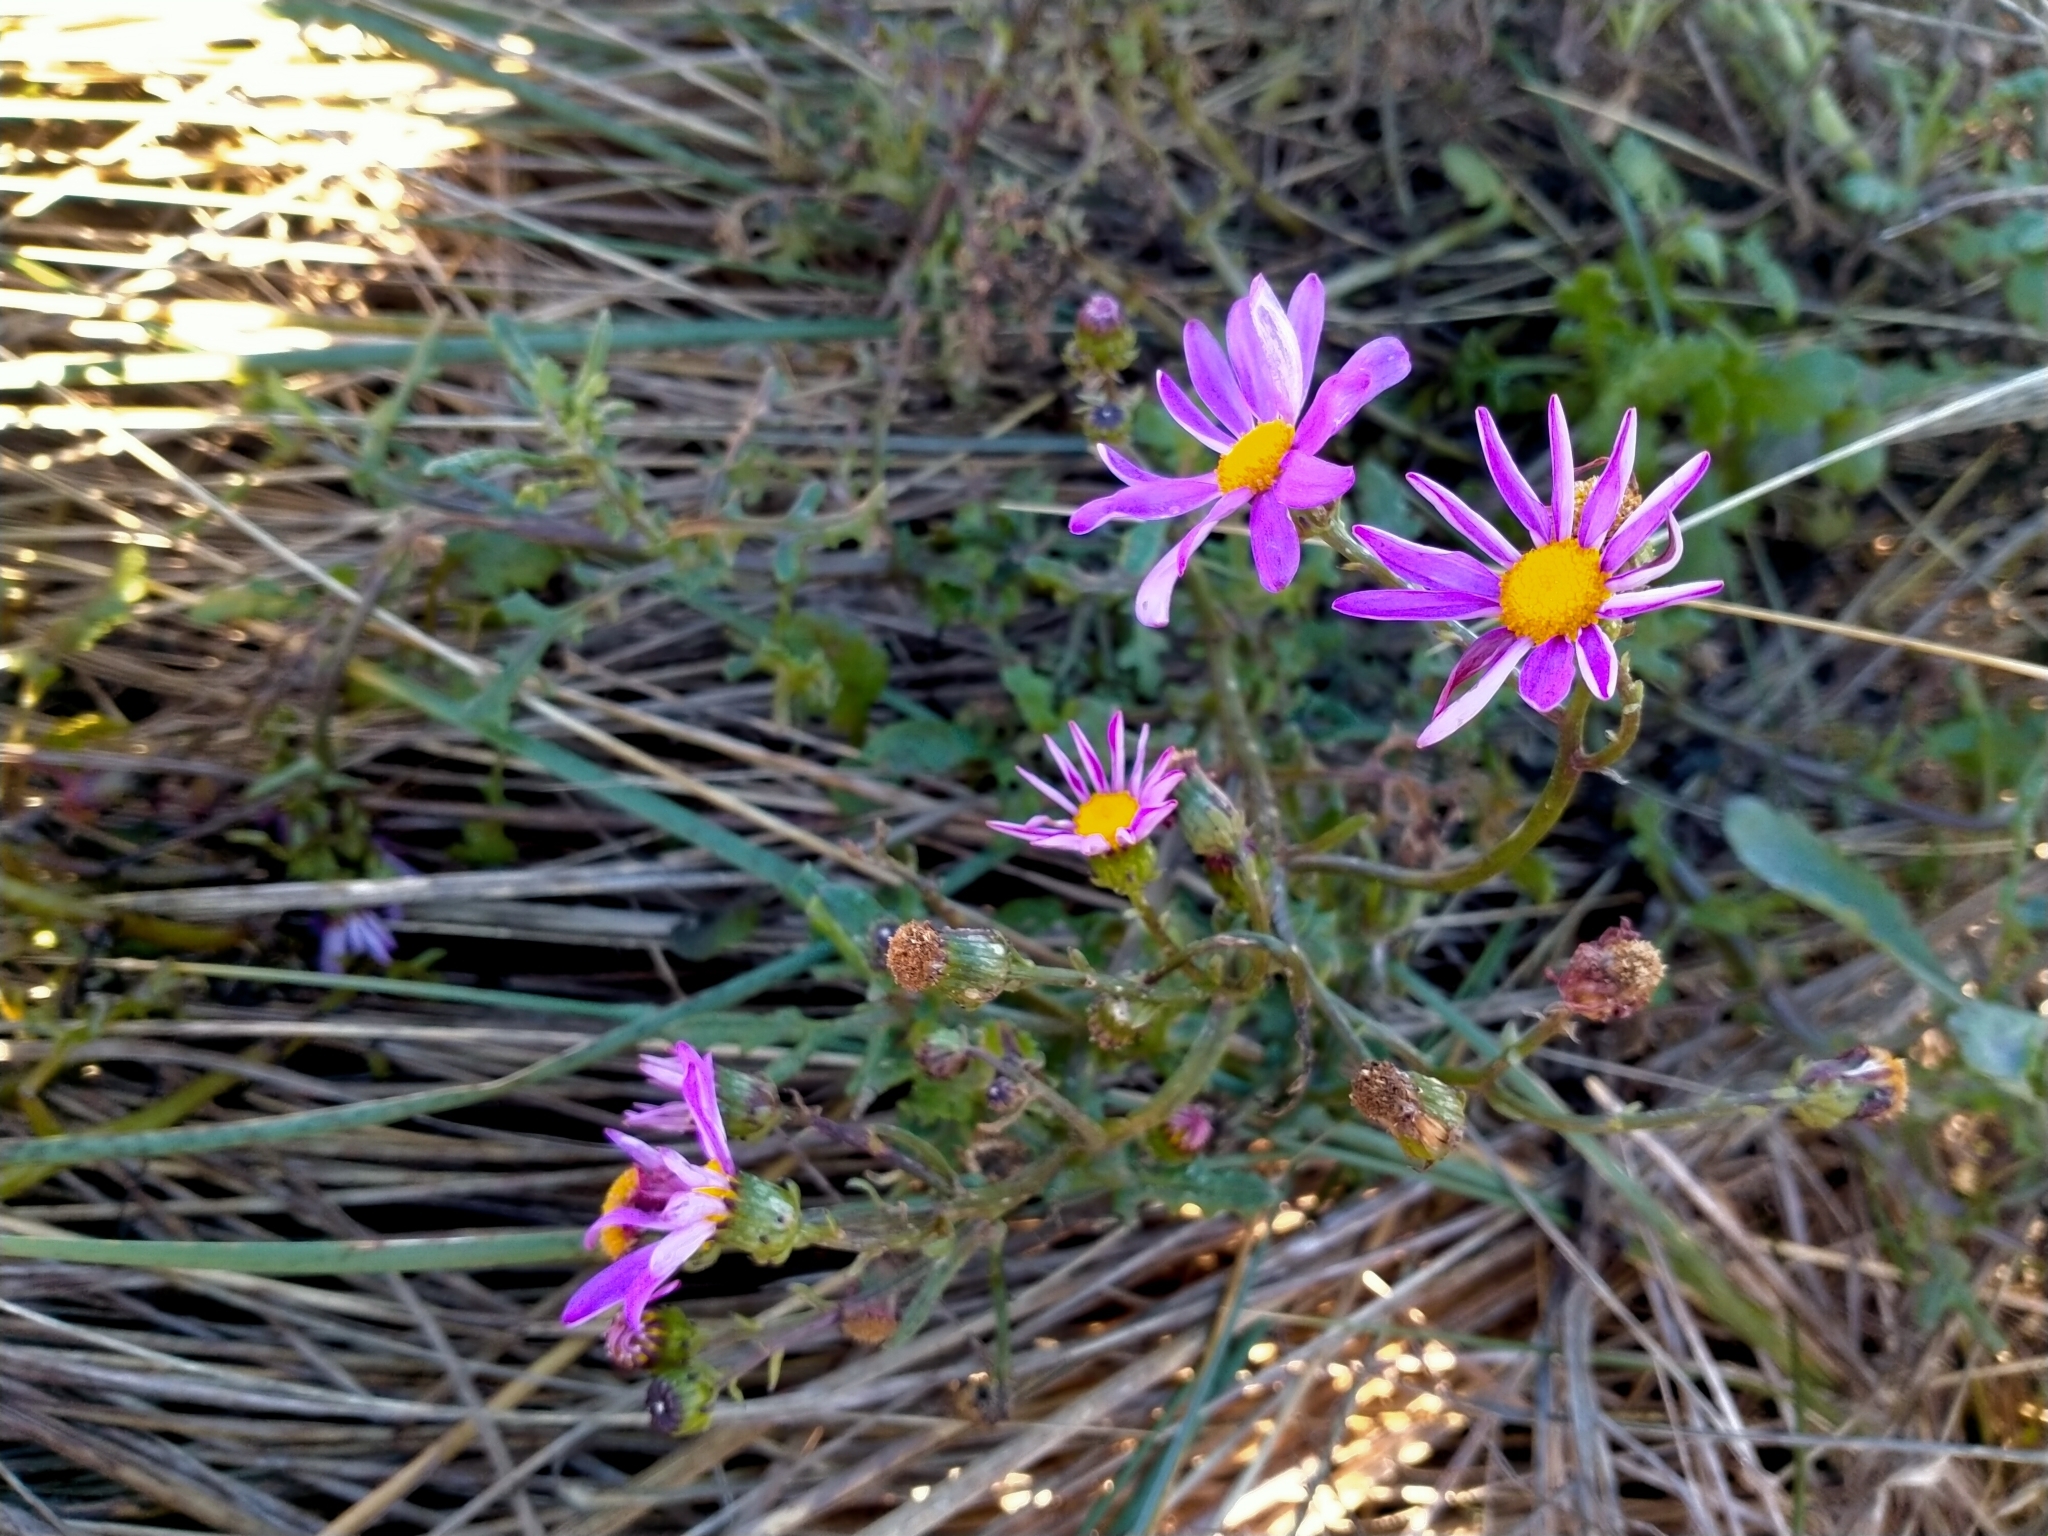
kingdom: Plantae
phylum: Tracheophyta
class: Magnoliopsida
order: Asterales
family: Asteraceae
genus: Senecio
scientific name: Senecio elegans
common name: Purple groundsel
